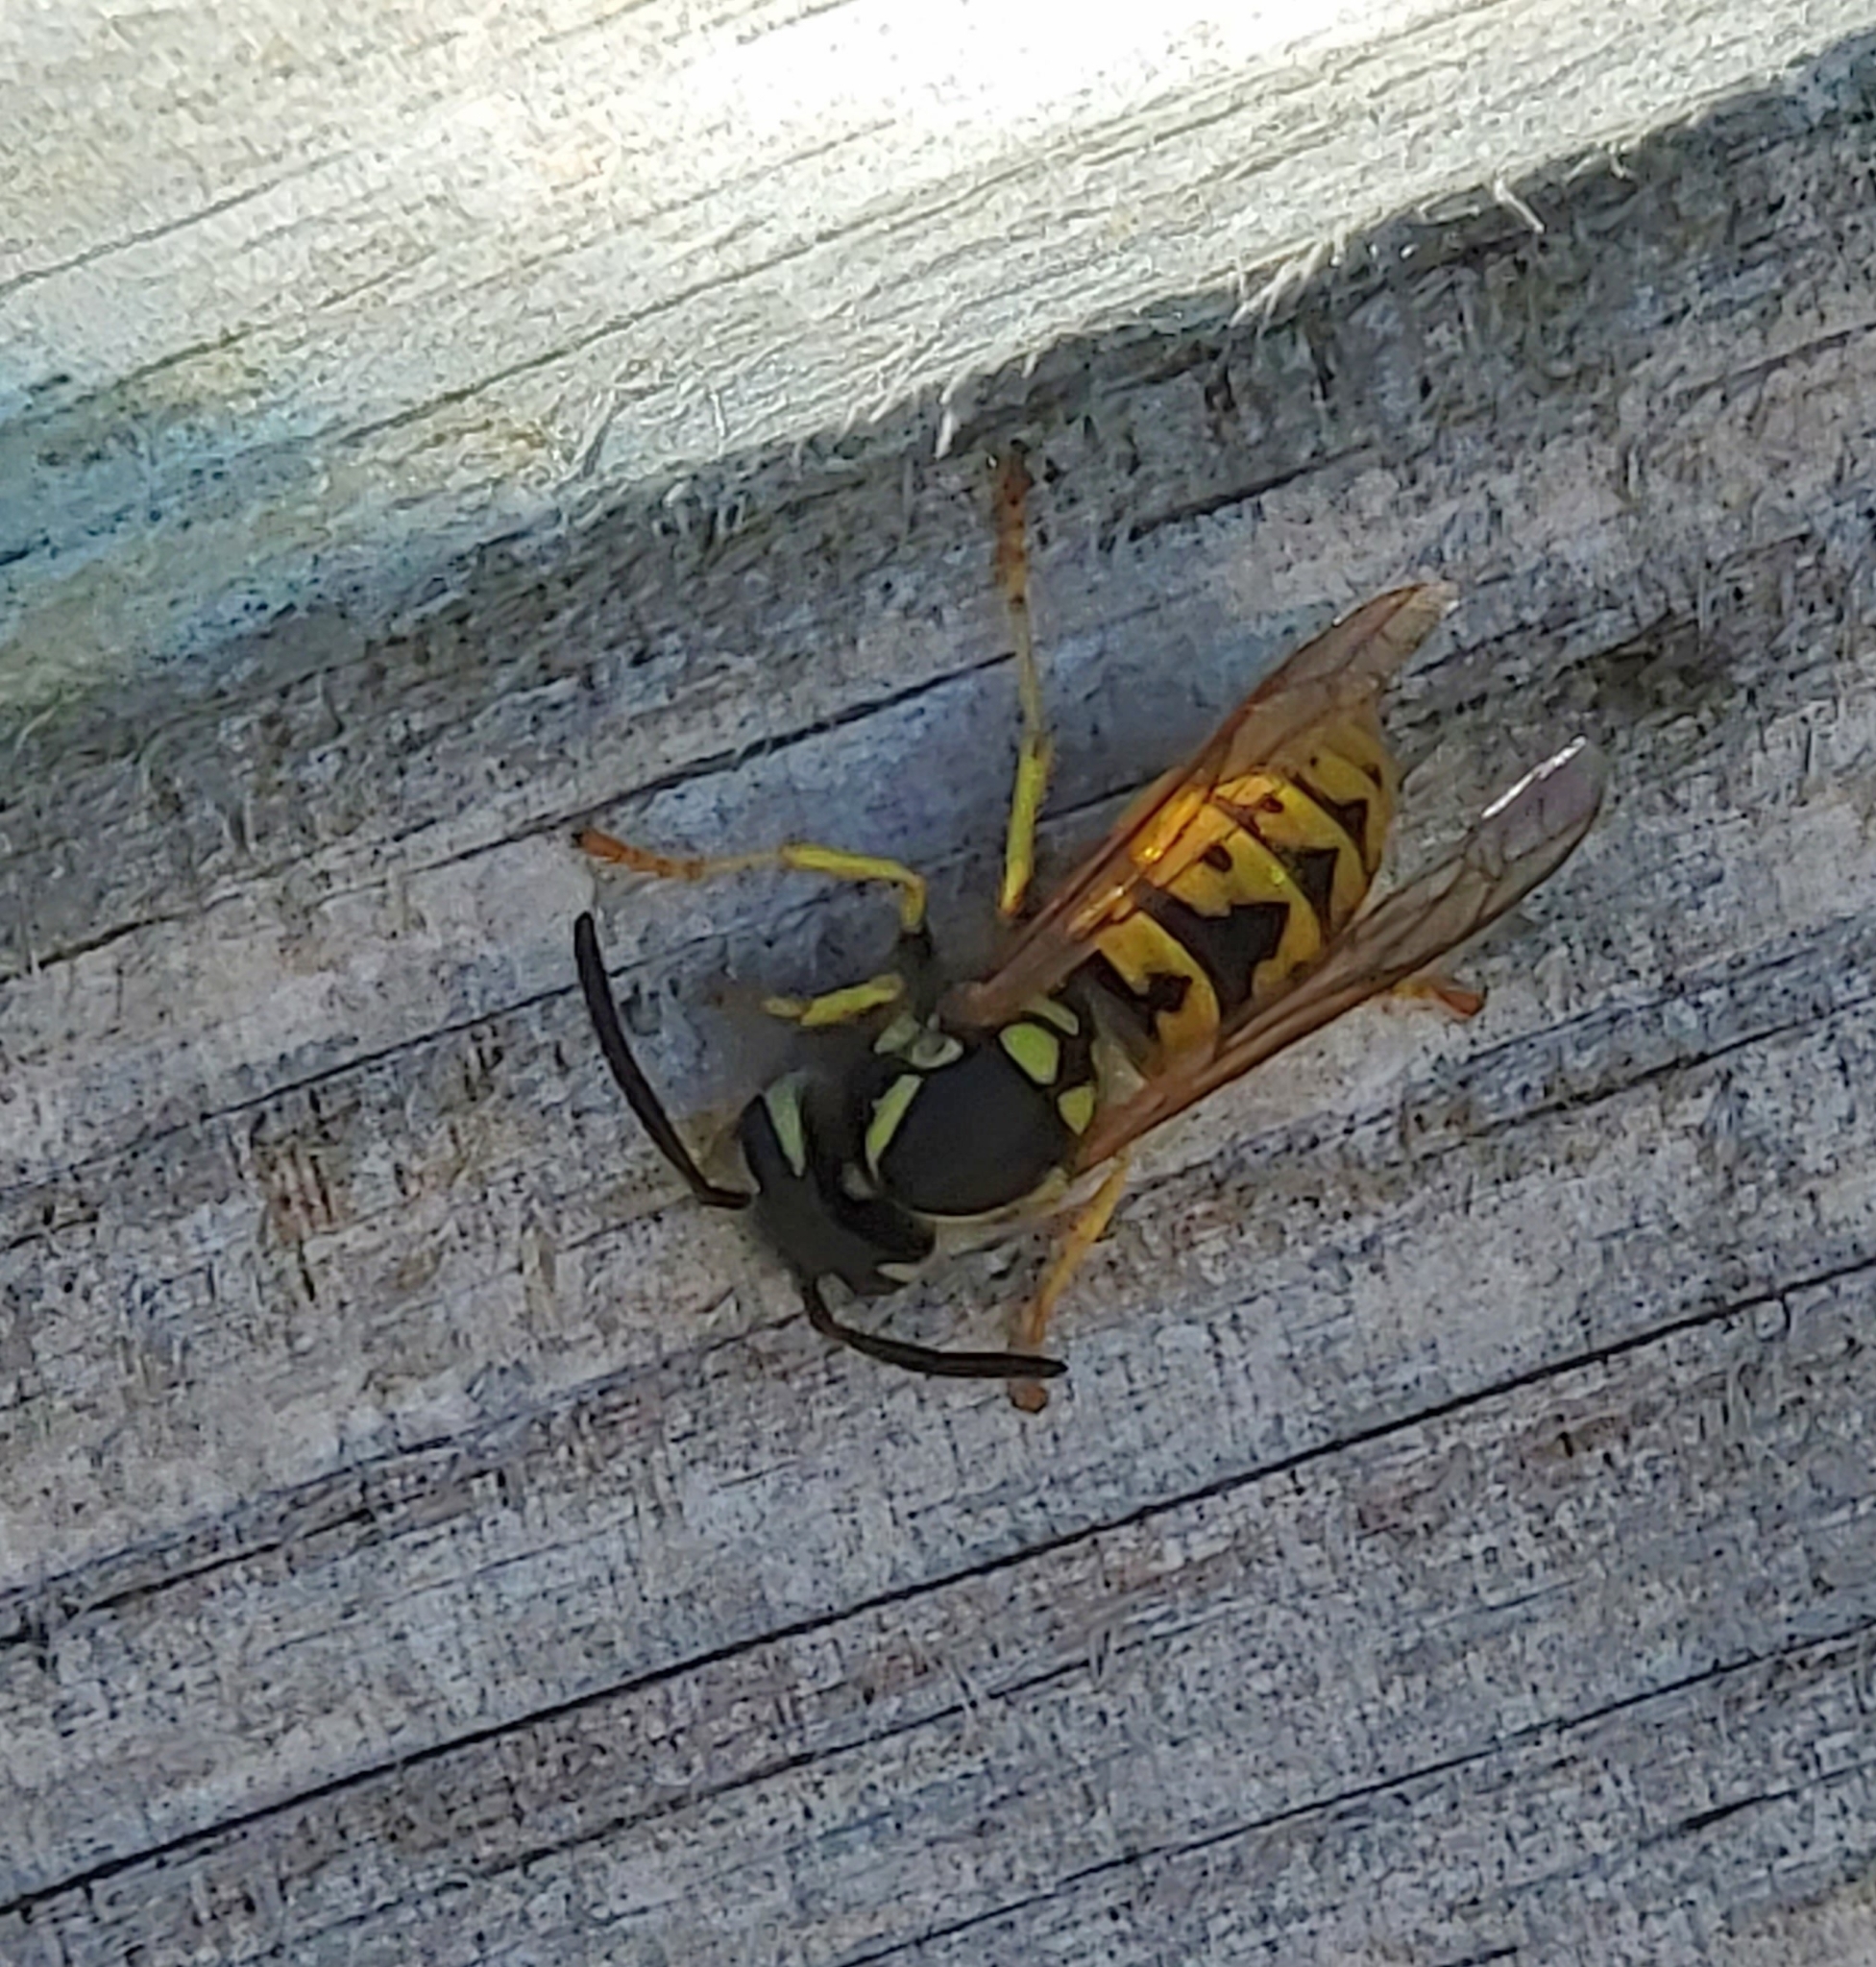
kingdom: Animalia
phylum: Arthropoda
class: Insecta
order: Hymenoptera
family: Vespidae
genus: Vespula
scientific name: Vespula germanica
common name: German wasp
